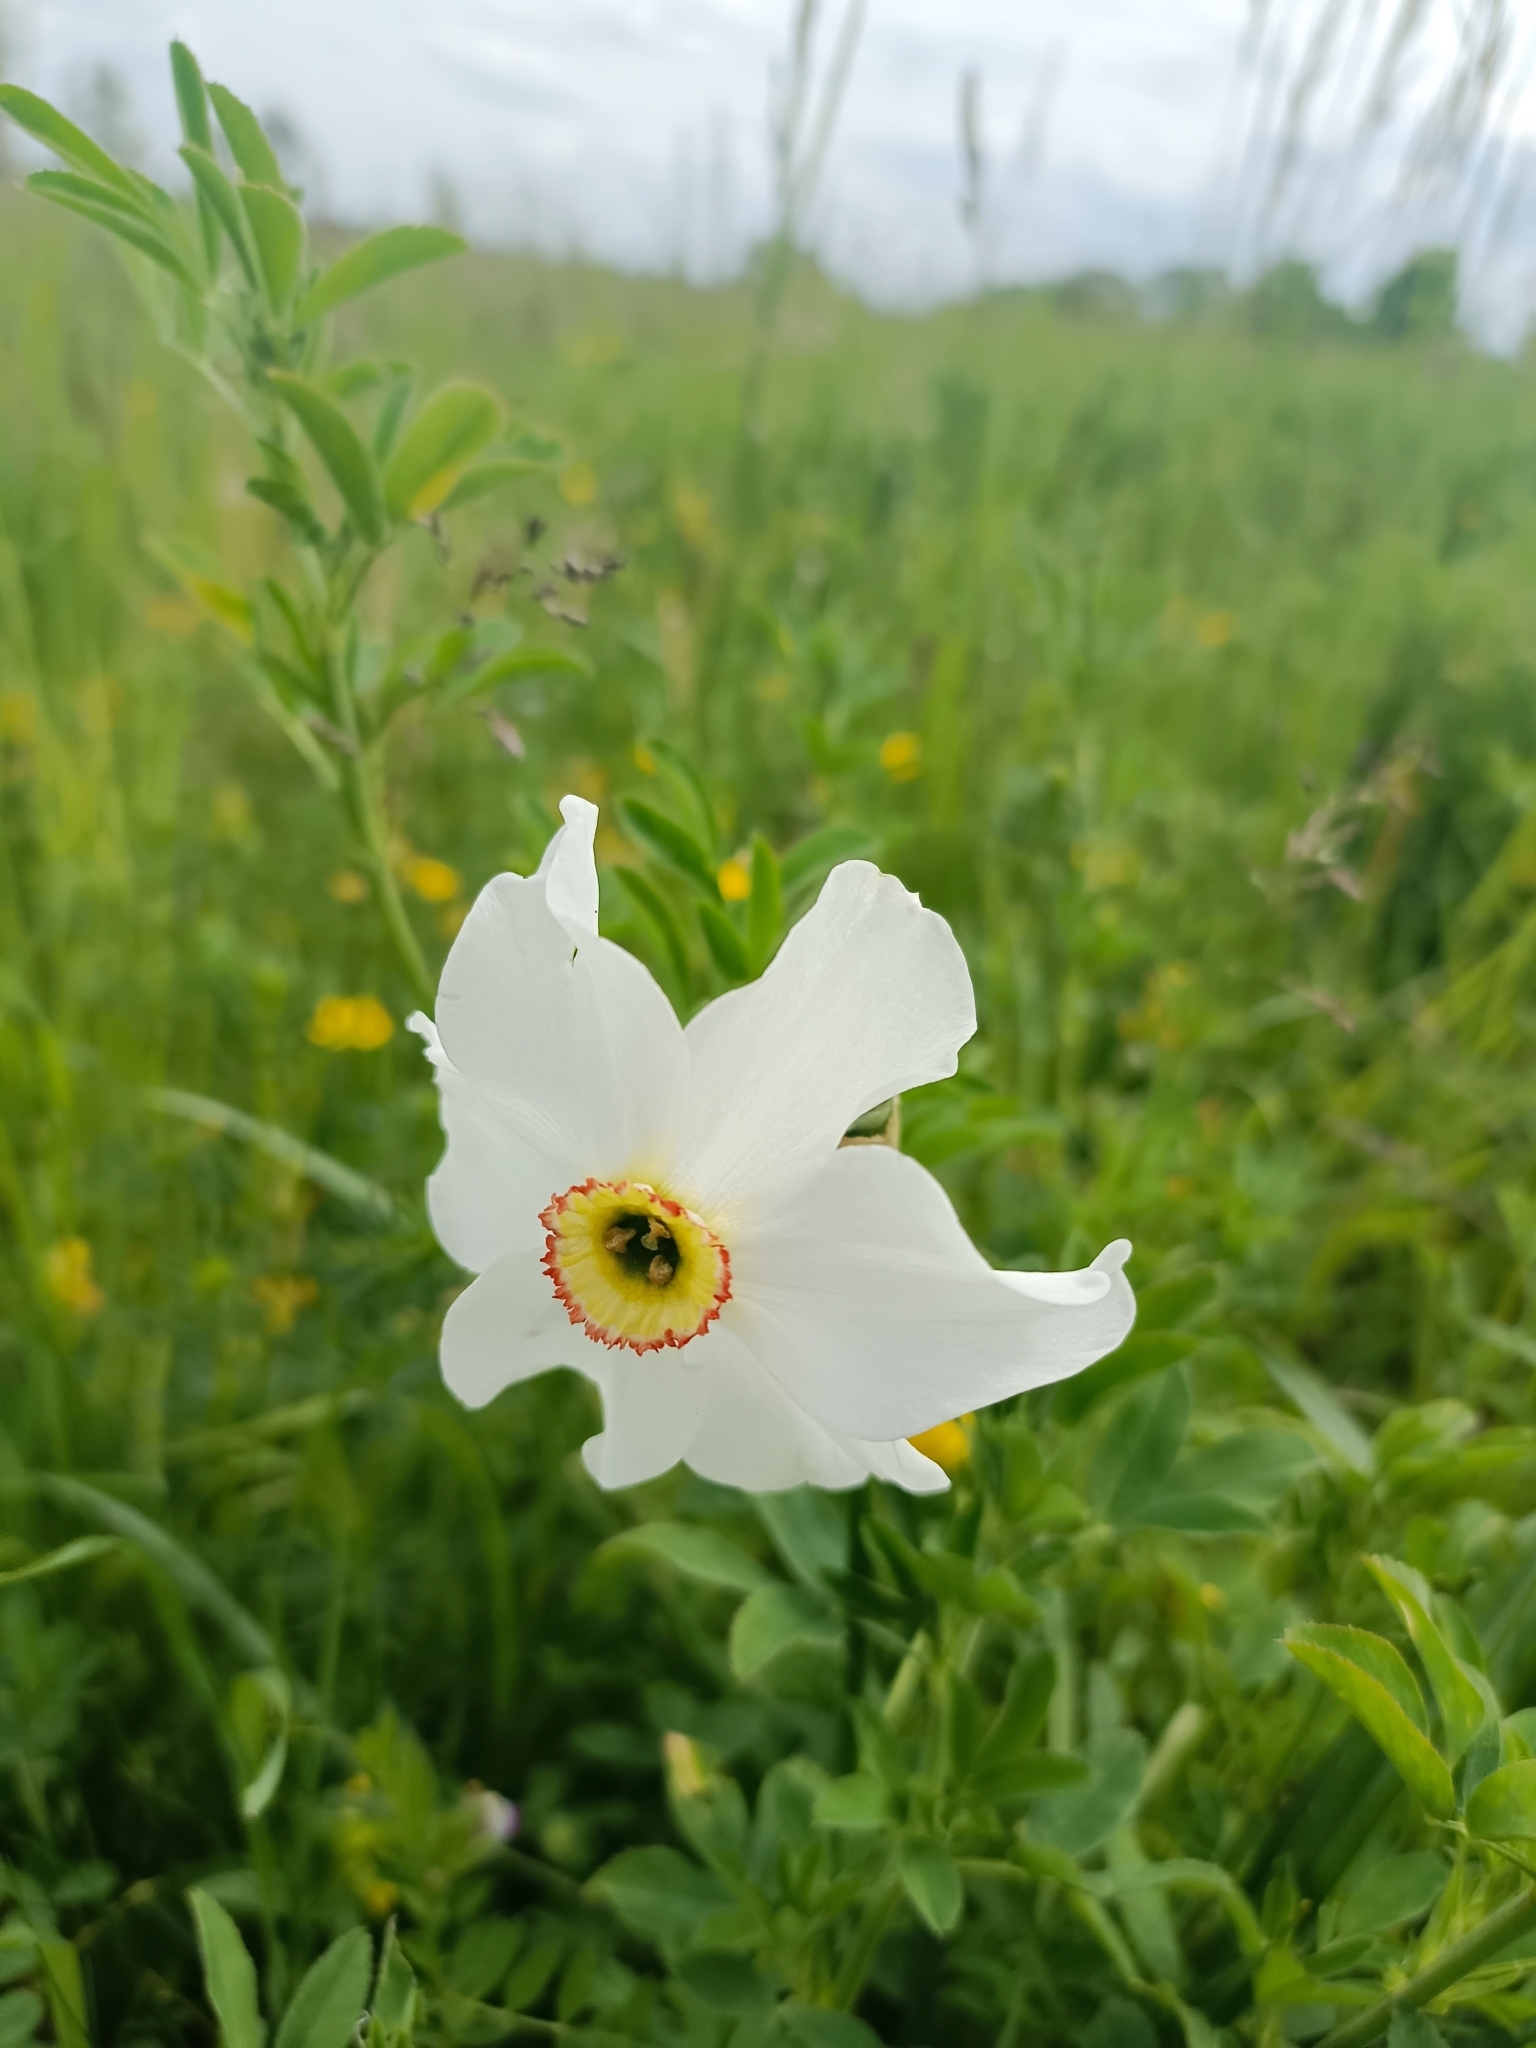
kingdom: Plantae
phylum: Tracheophyta
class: Liliopsida
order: Asparagales
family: Amaryllidaceae
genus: Narcissus
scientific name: Narcissus poeticus
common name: Pheasant's-eye daffodil
